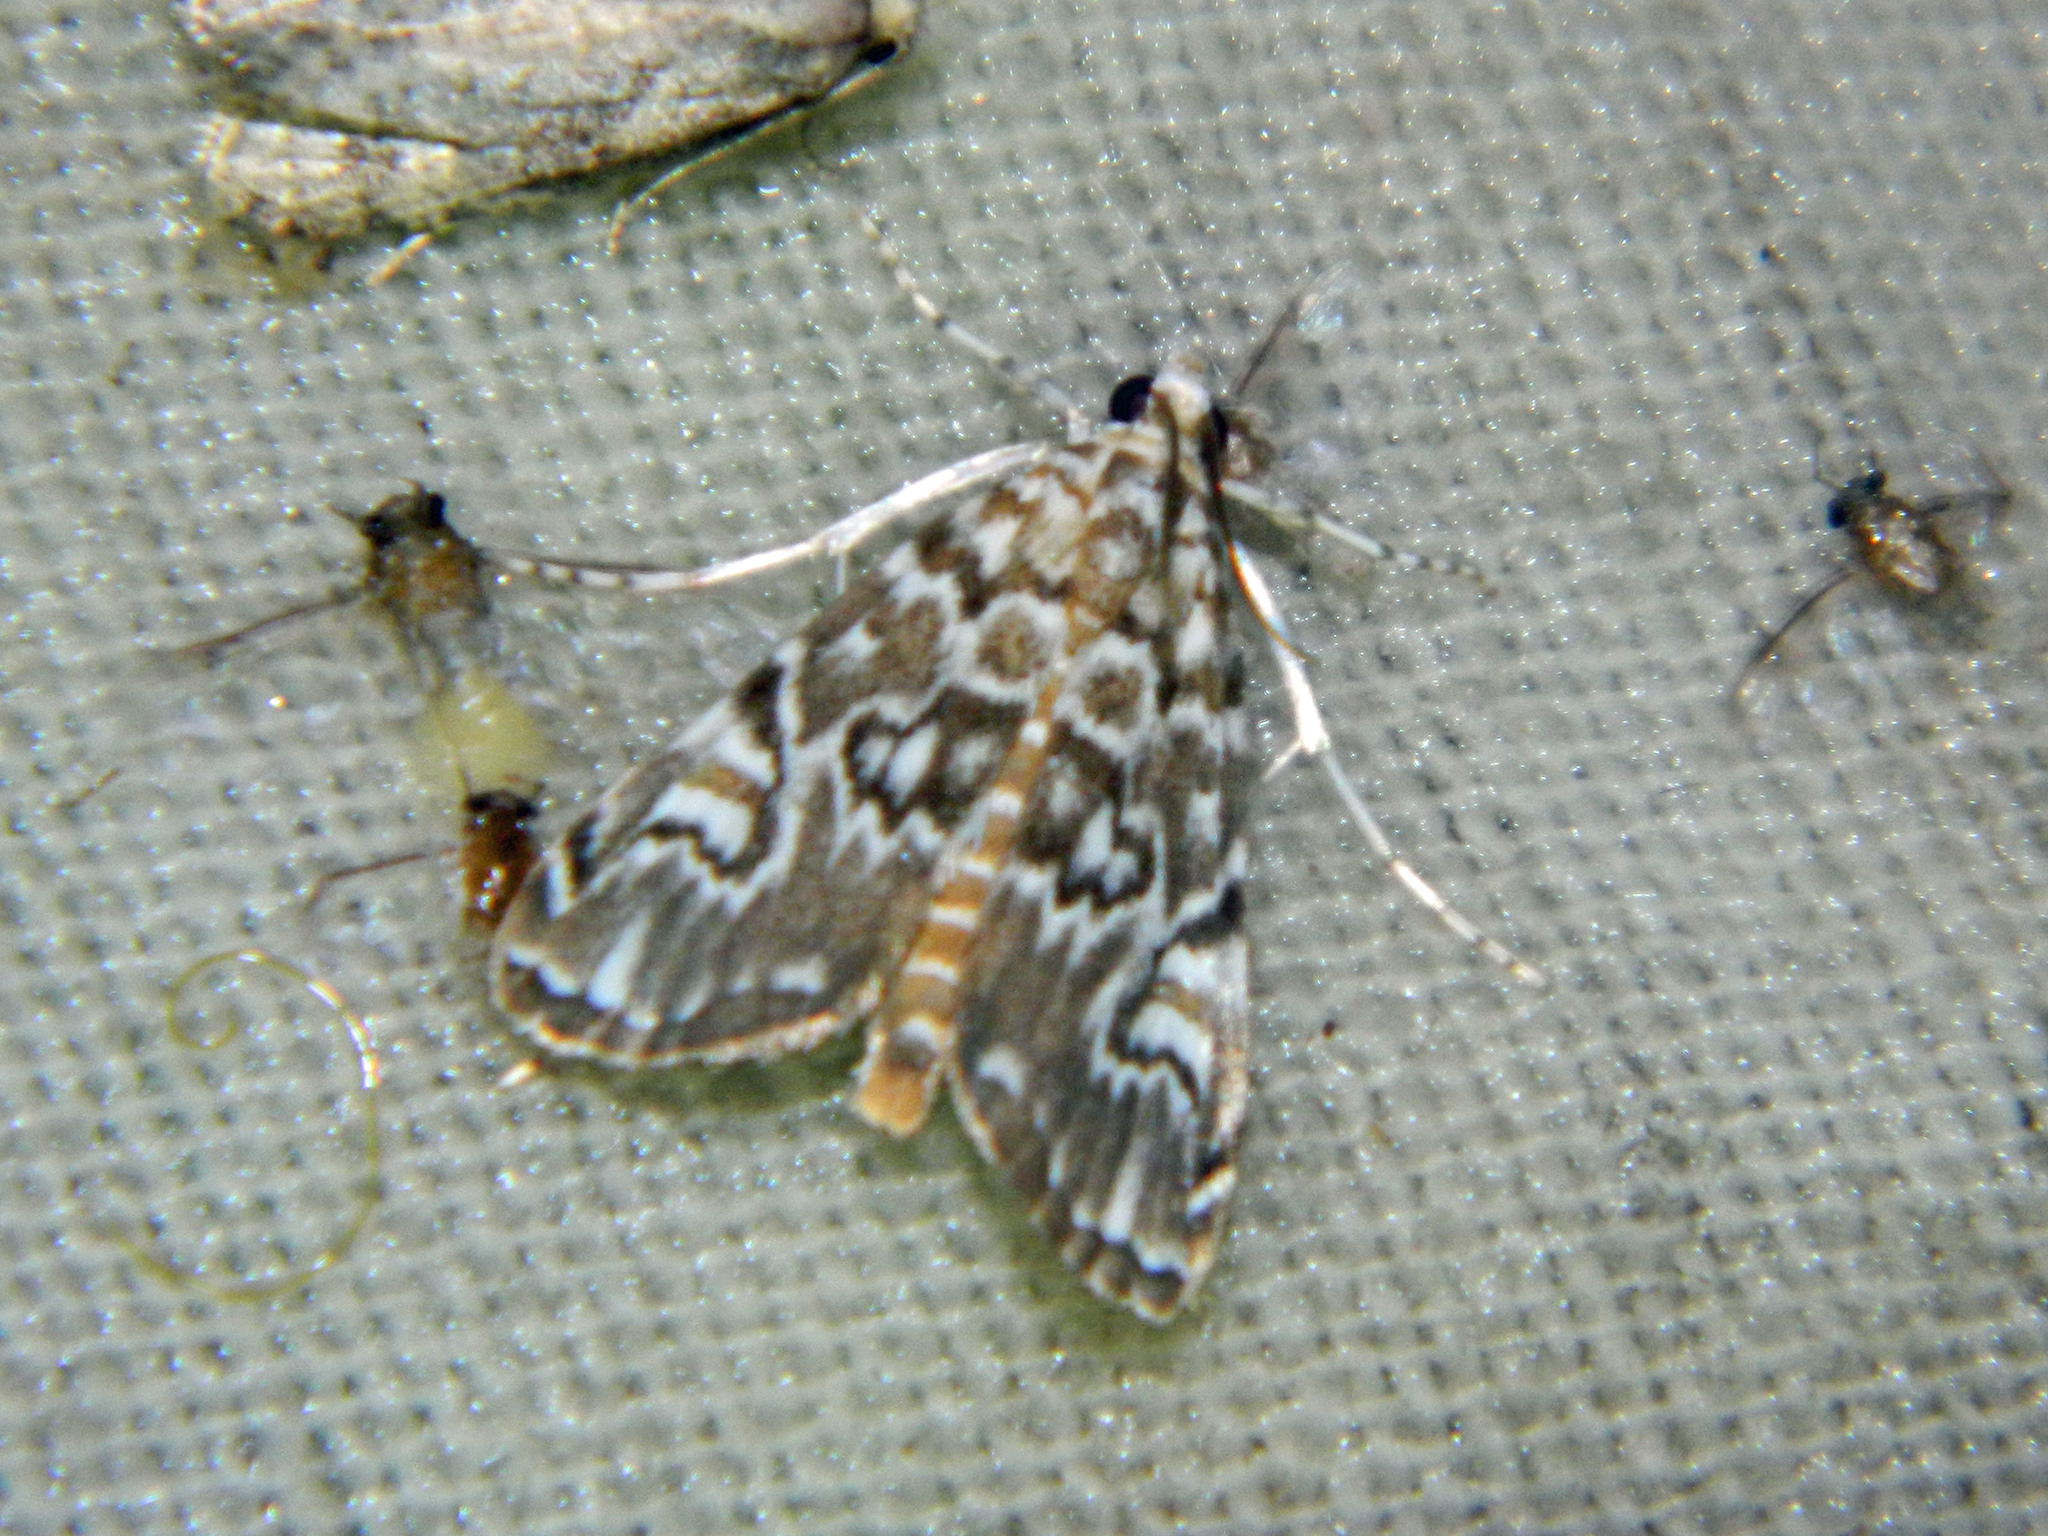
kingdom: Animalia
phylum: Arthropoda
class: Insecta
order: Lepidoptera
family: Crambidae
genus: Elophila
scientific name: Elophila gyralis
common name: Waterlily borer moth
